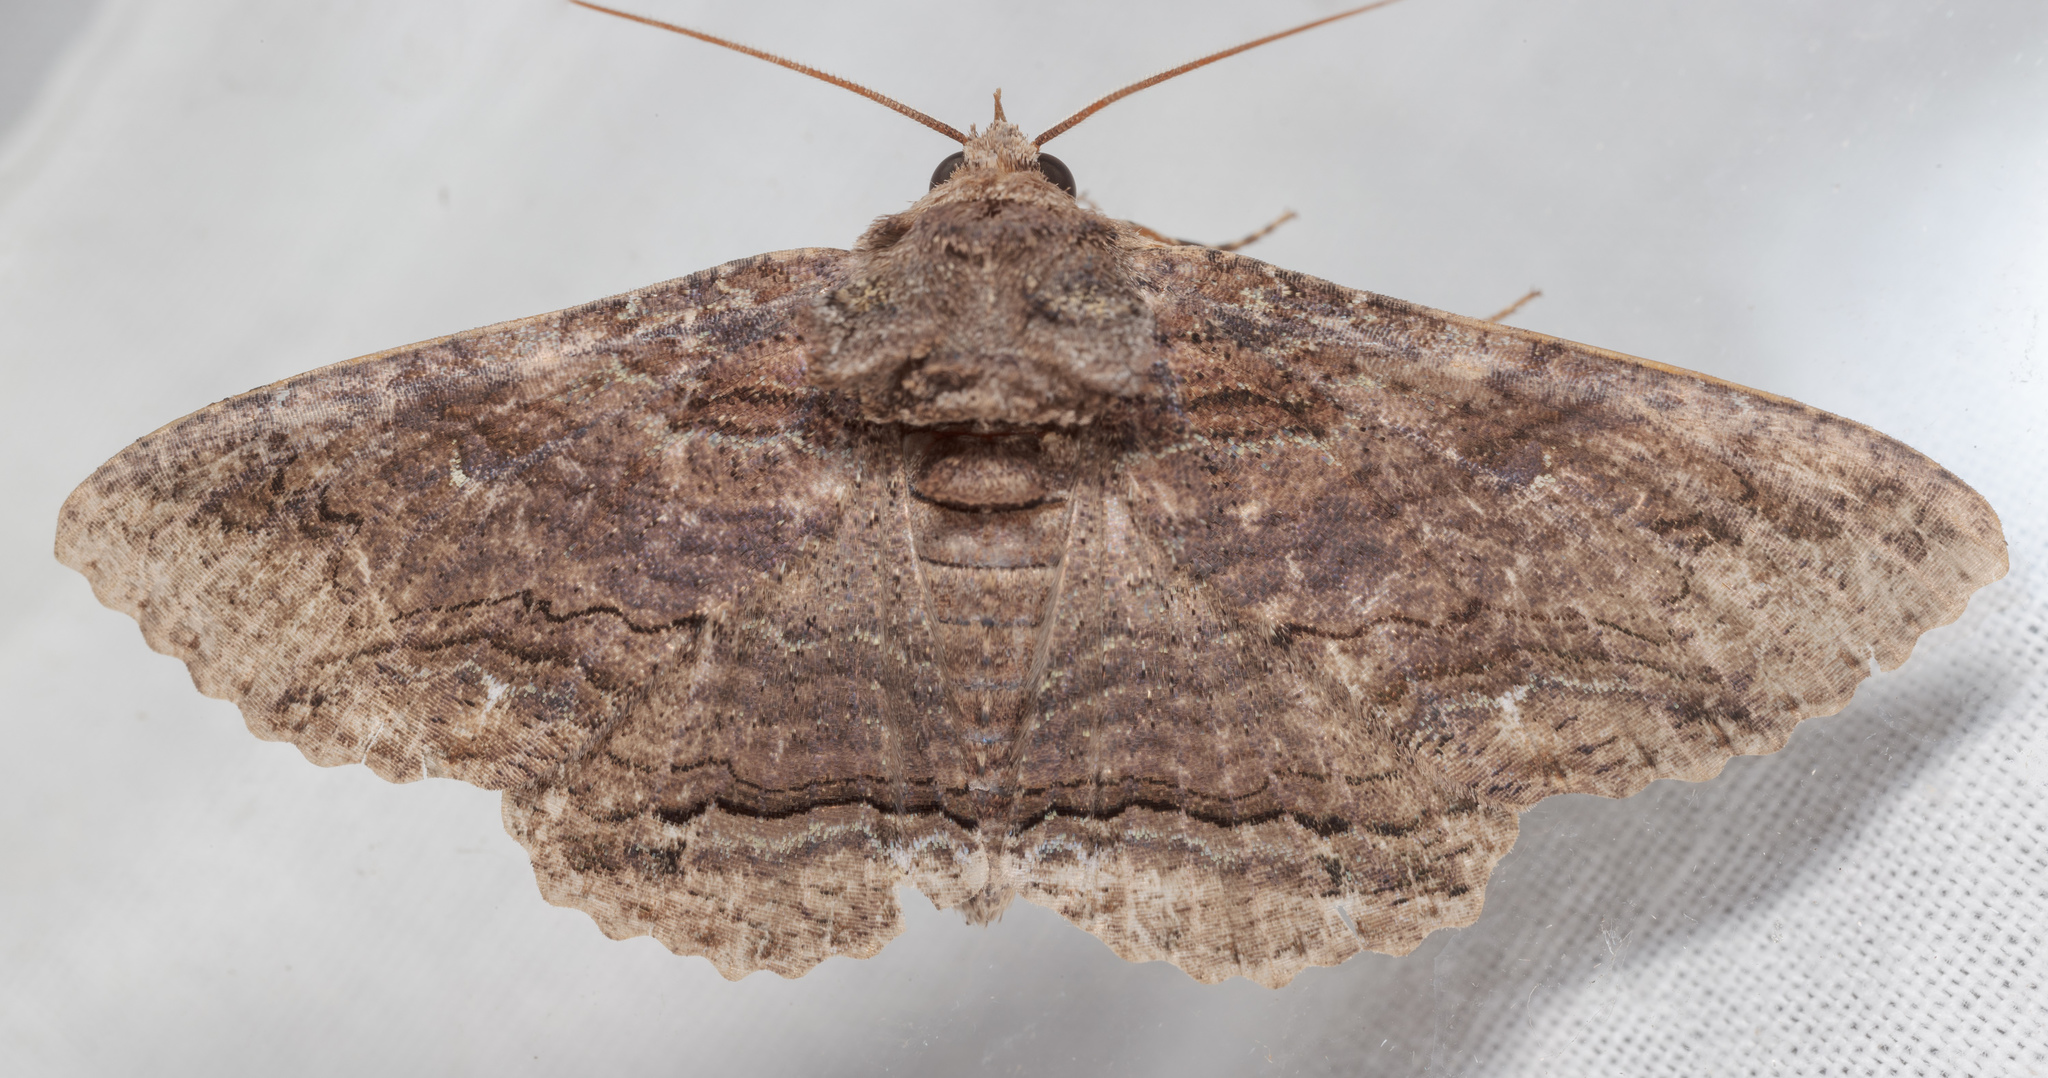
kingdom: Animalia
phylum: Arthropoda
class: Insecta
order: Lepidoptera
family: Erebidae
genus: Zale
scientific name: Zale lunata
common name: Lunate zale moth
